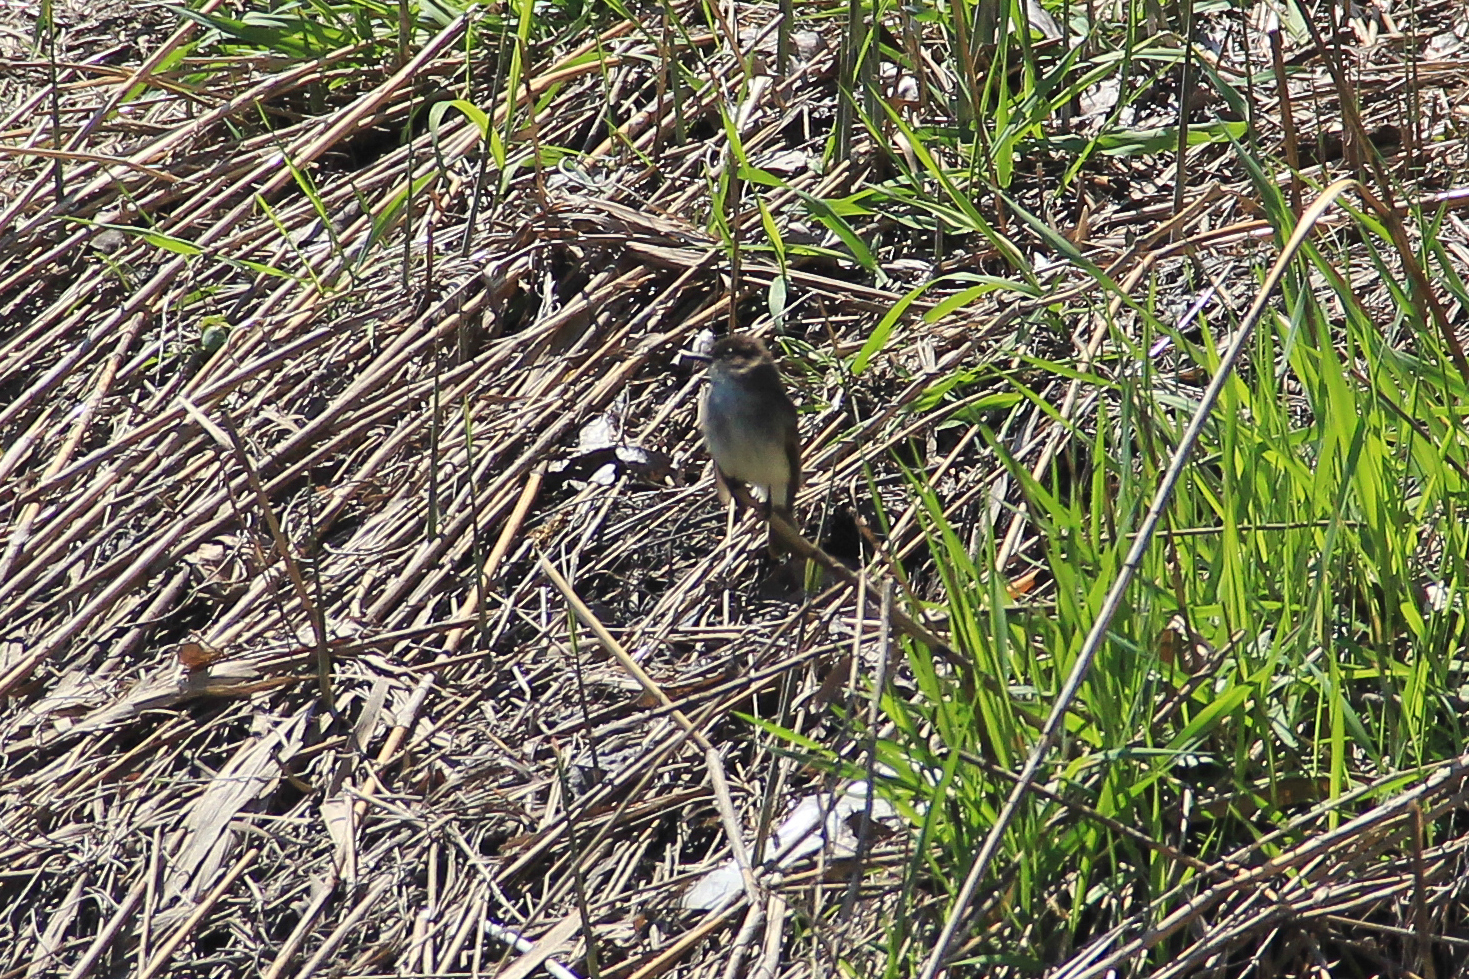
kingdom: Animalia
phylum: Chordata
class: Aves
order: Passeriformes
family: Tyrannidae
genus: Sayornis
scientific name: Sayornis phoebe
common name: Eastern phoebe
